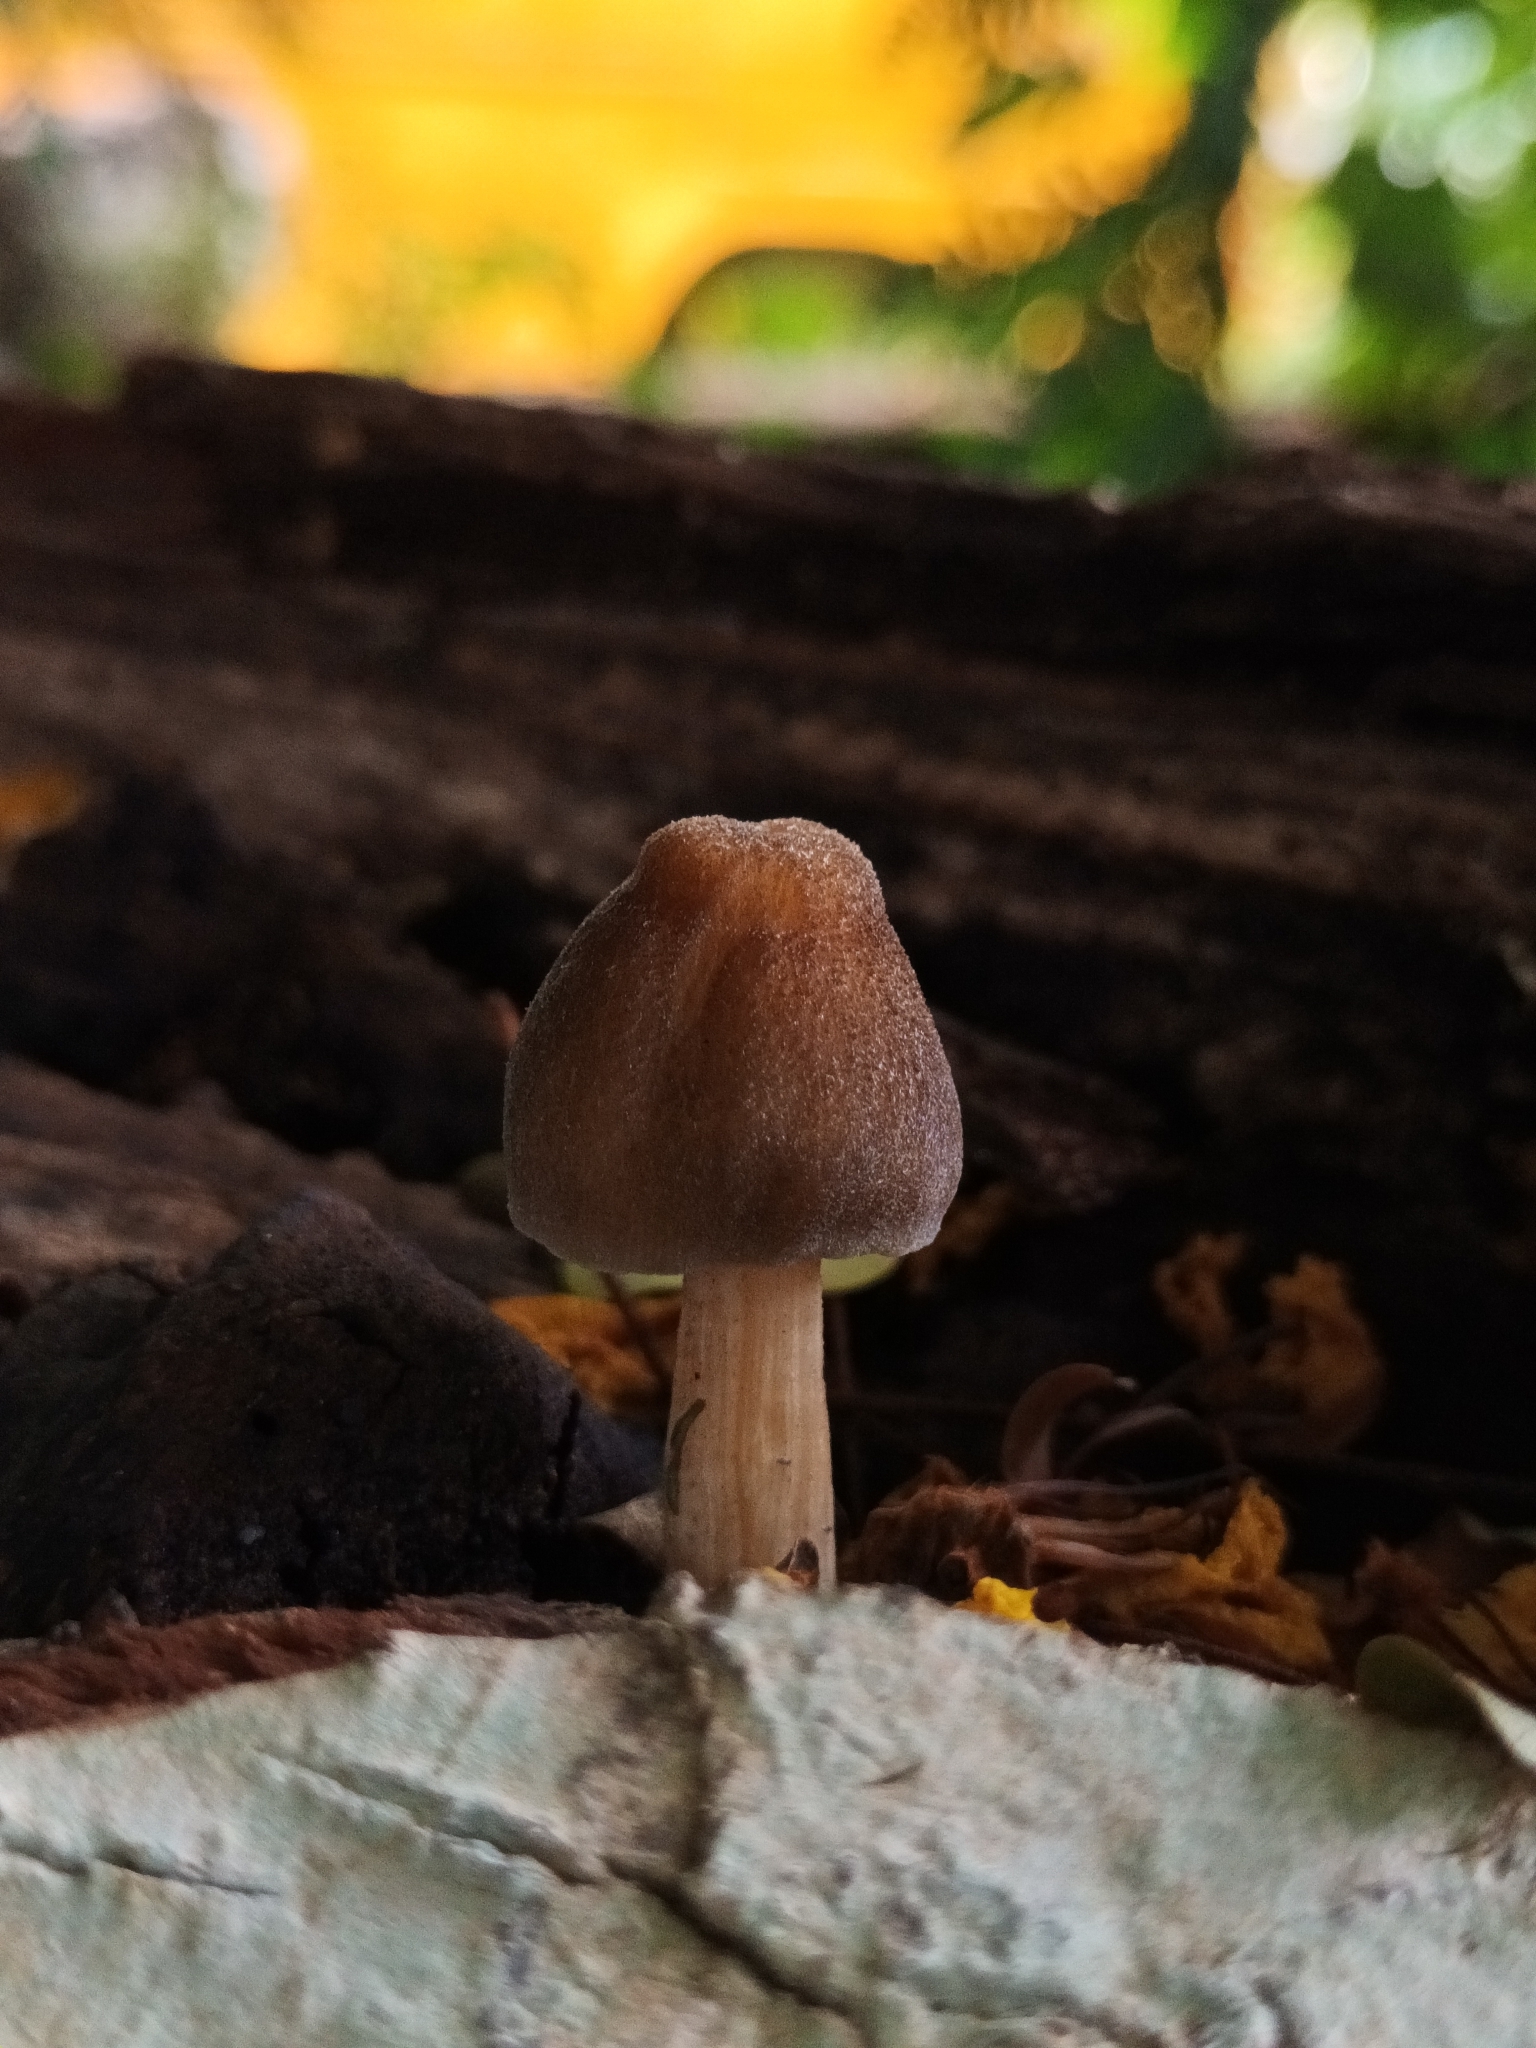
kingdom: Fungi
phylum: Basidiomycota
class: Agaricomycetes
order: Agaricales
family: Pluteaceae
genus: Pluteus
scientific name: Pluteus longistriatus
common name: Pleated pluteus
